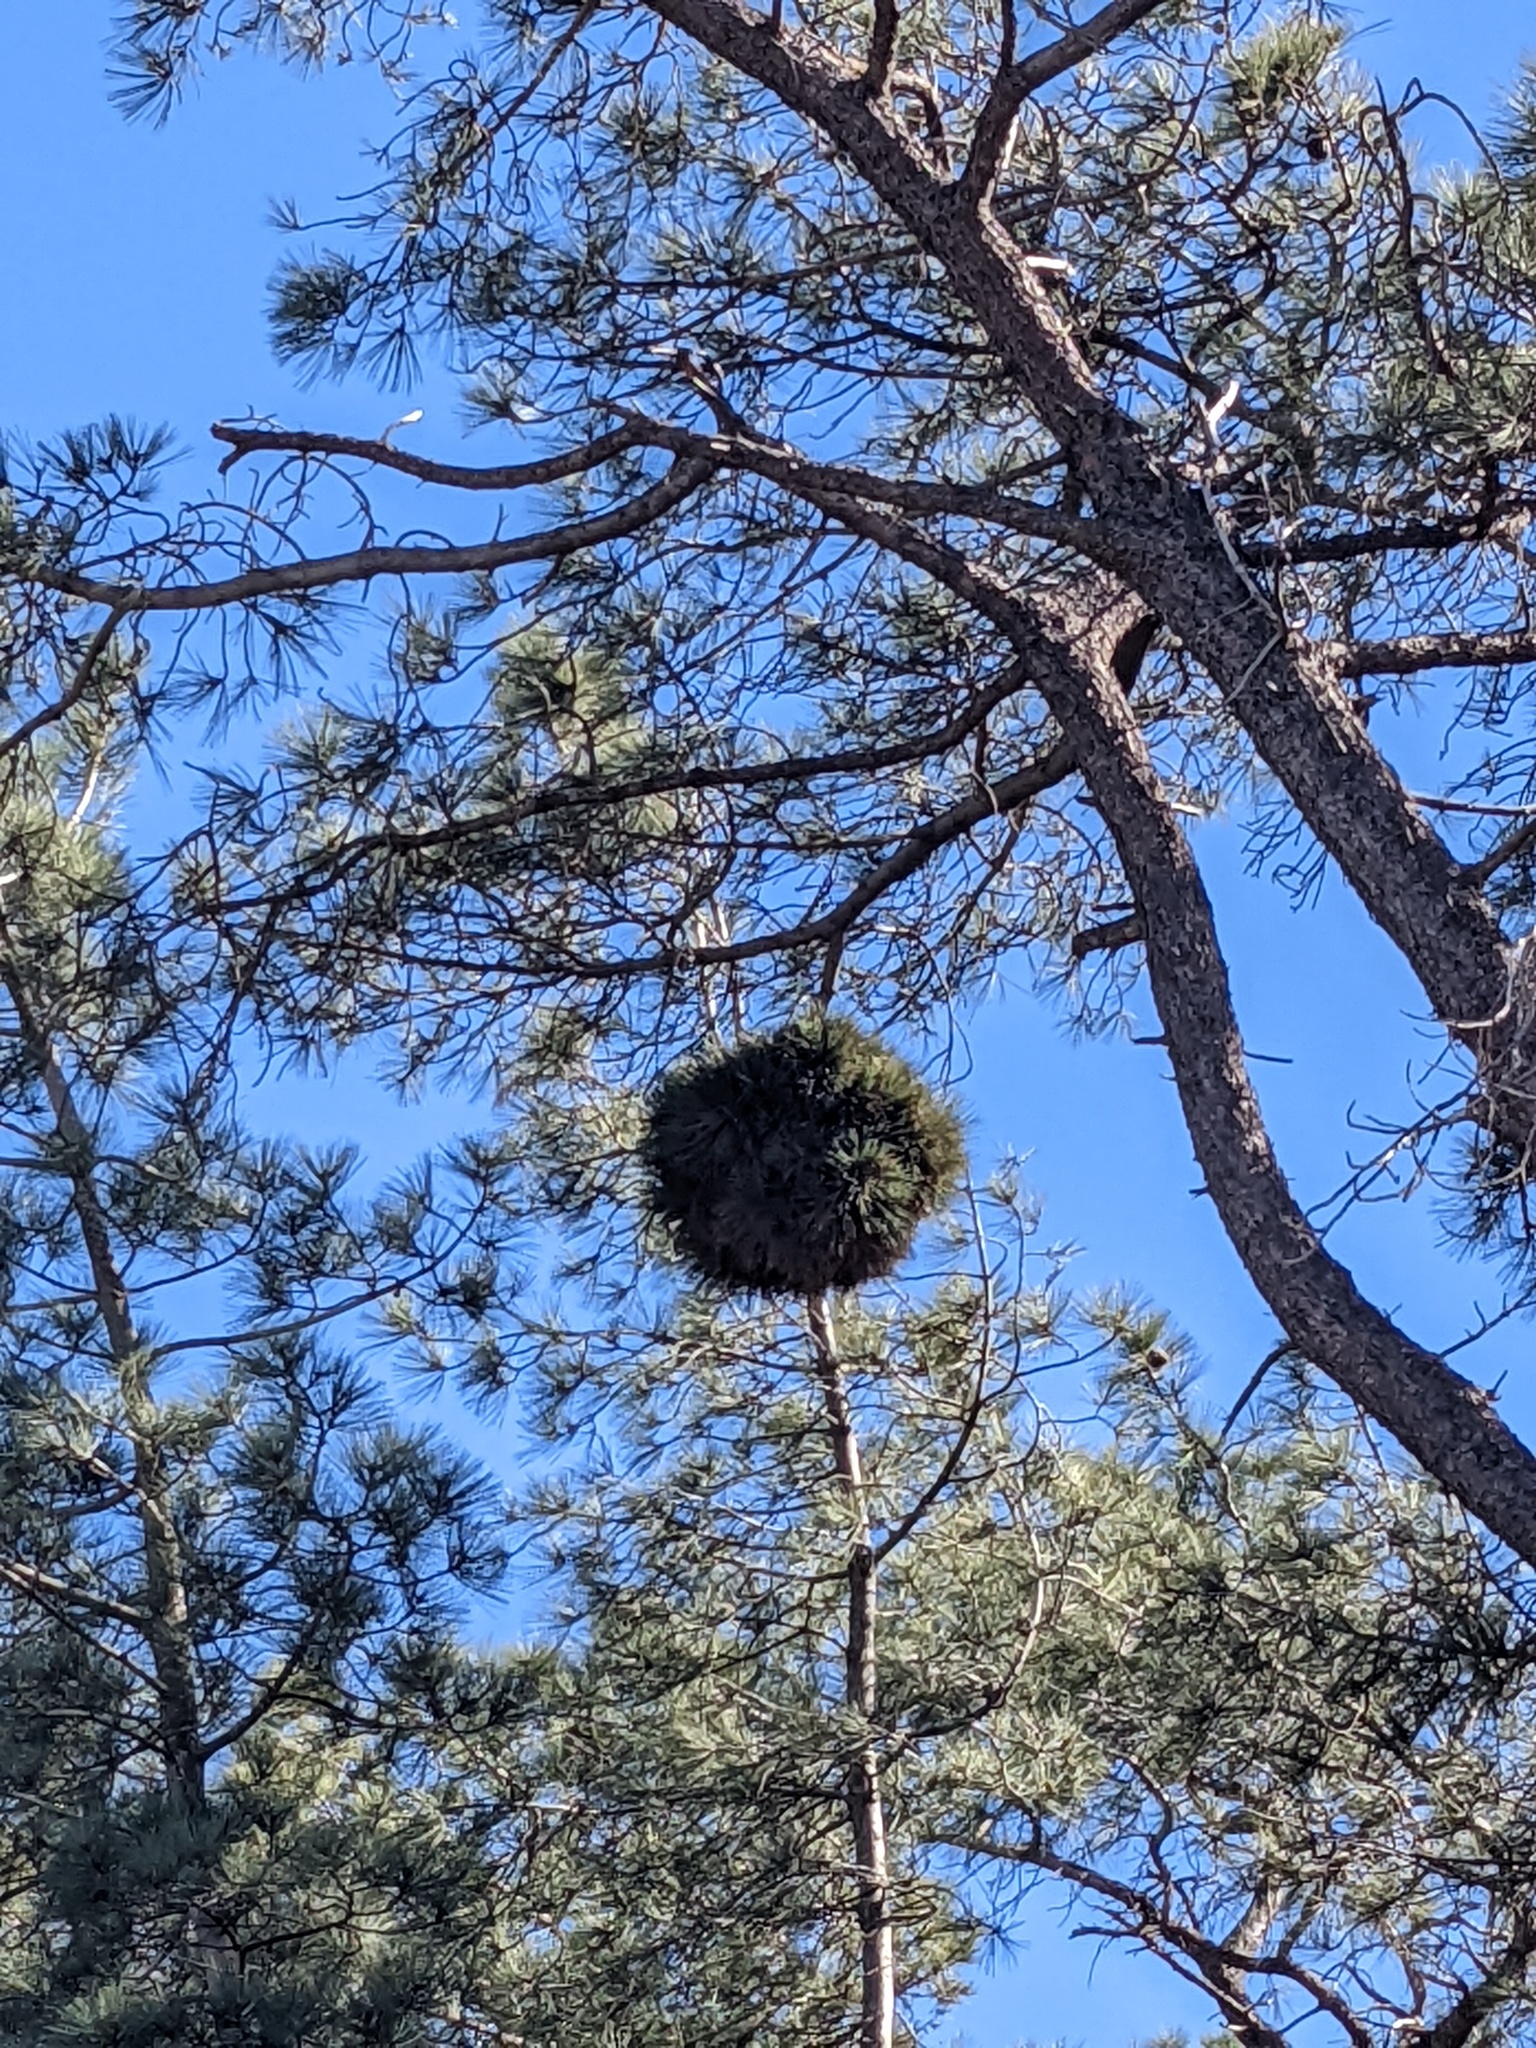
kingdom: Bacteria
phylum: Firmicutes
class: Bacilli
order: Acholeplasmatales
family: Acholeplasmataceae
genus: Phytoplasma
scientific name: Phytoplasma pini
